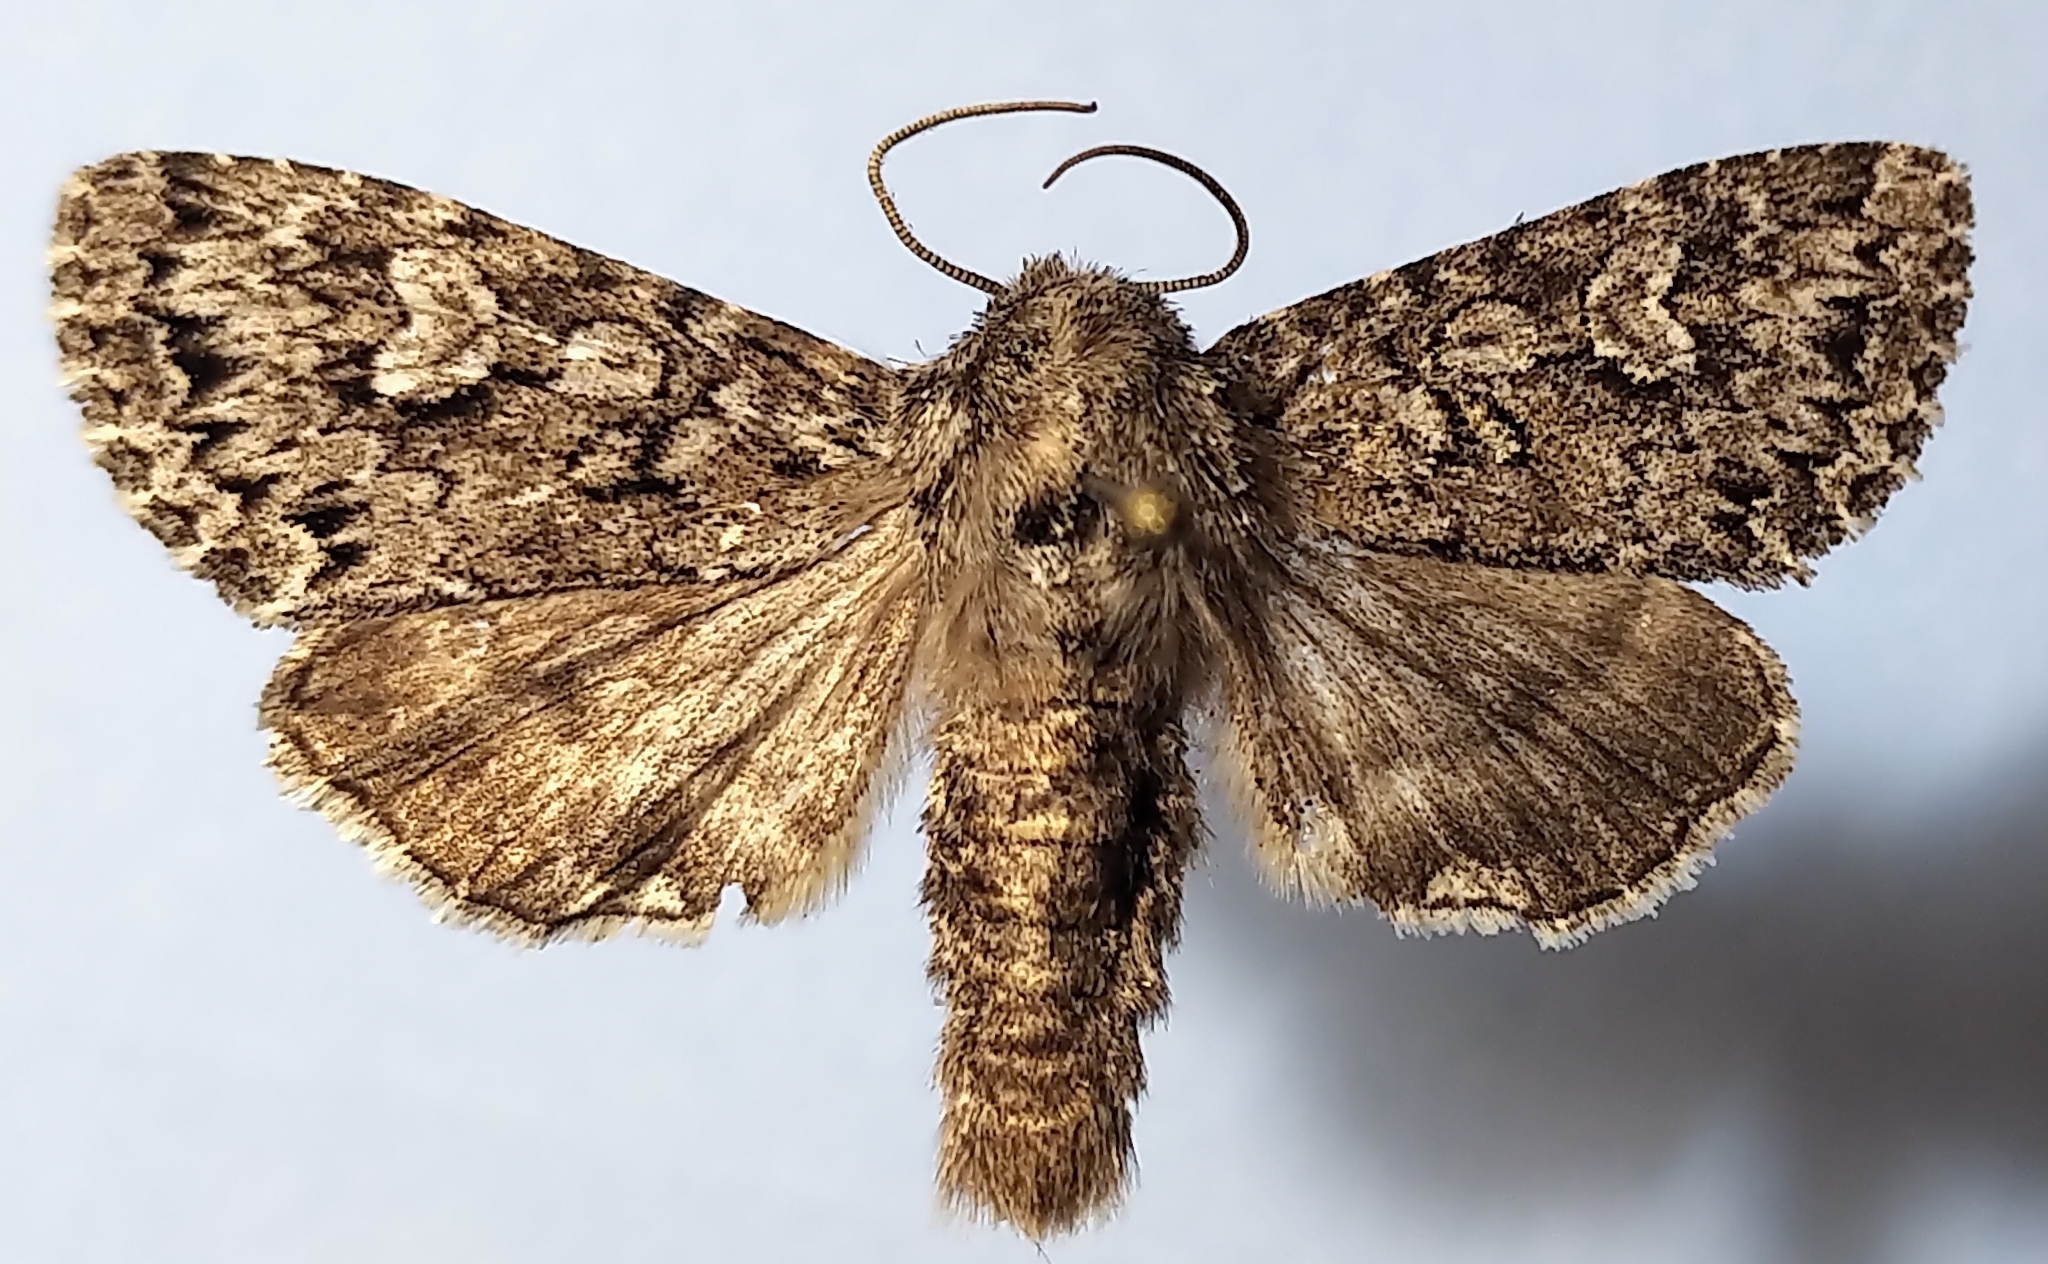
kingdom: Animalia
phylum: Arthropoda
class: Insecta
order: Lepidoptera
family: Noctuidae
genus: Polia
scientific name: Polia propodea
